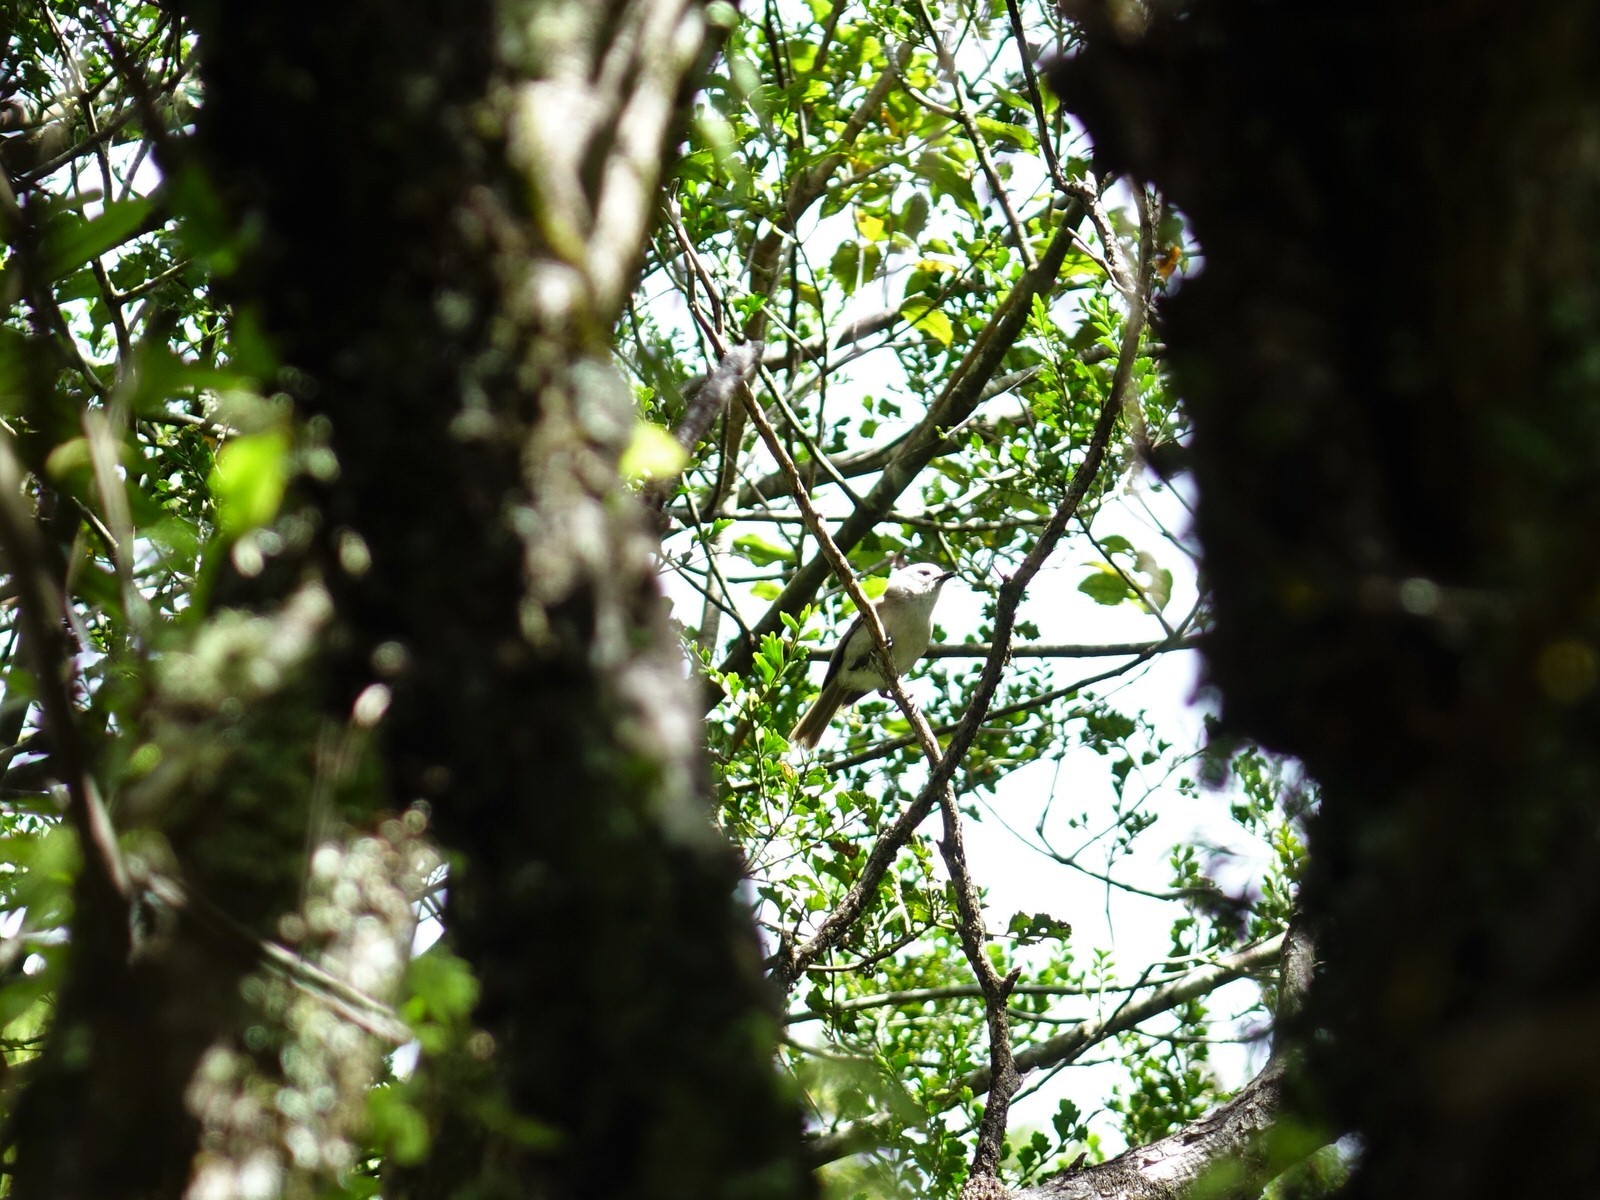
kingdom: Animalia
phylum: Chordata
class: Aves
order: Passeriformes
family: Acanthizidae
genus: Mohoua
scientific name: Mohoua albicilla
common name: Whitehead
